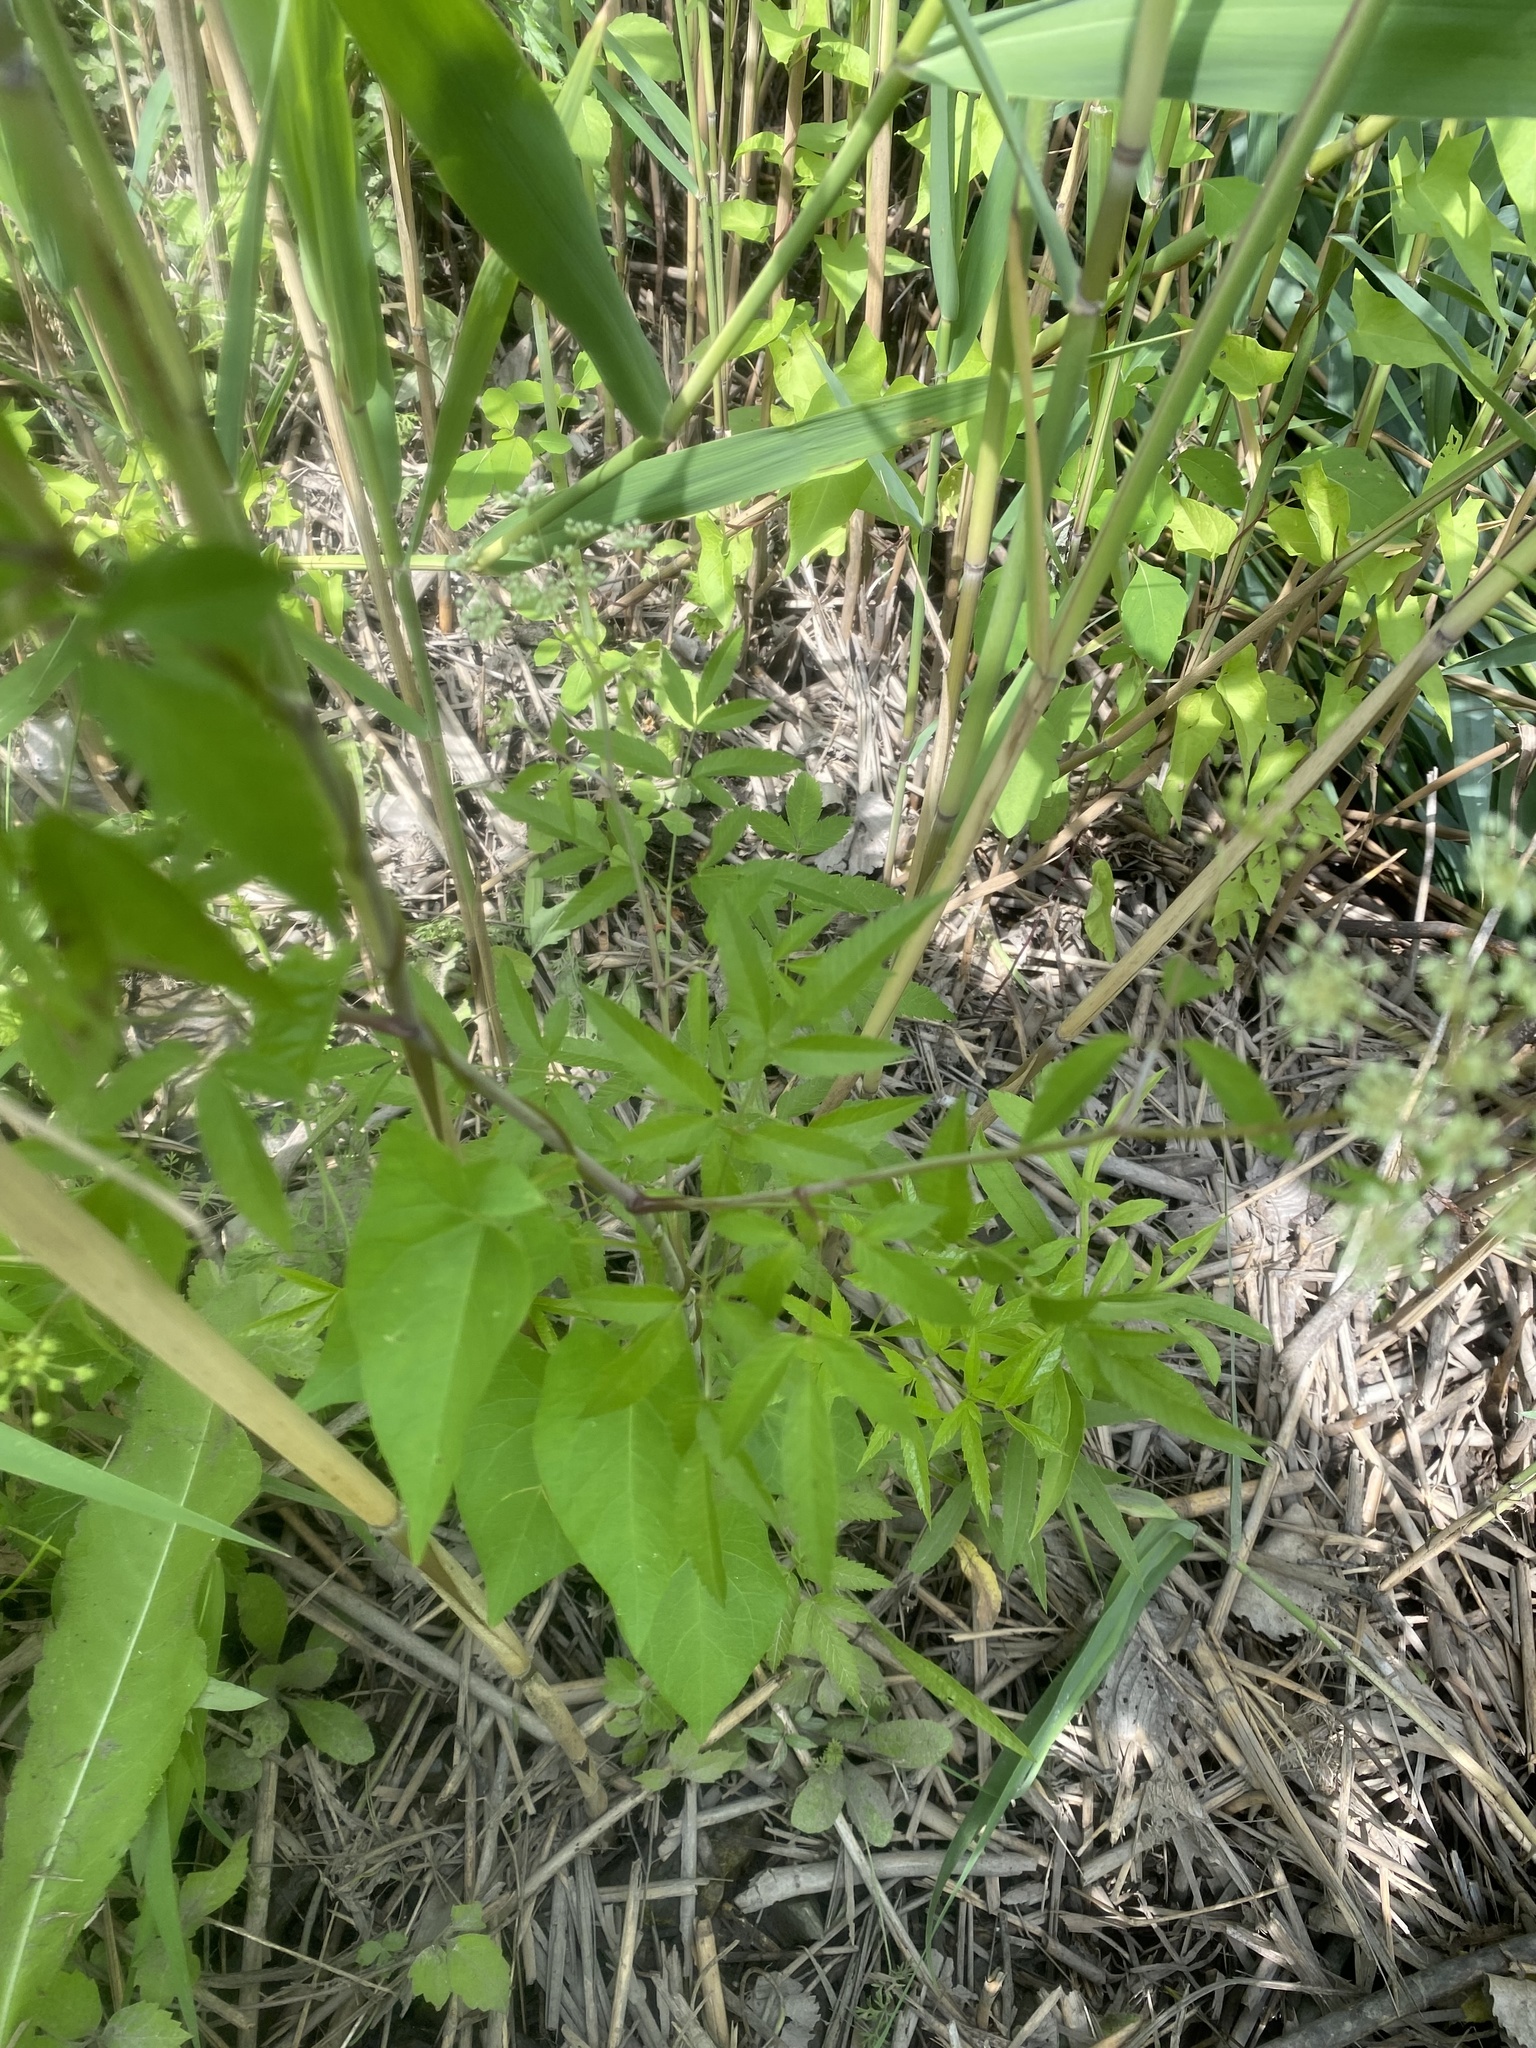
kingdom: Plantae
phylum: Tracheophyta
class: Magnoliopsida
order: Apiales
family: Apiaceae
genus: Cicuta
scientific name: Cicuta maculata
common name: Spotted cowbane
